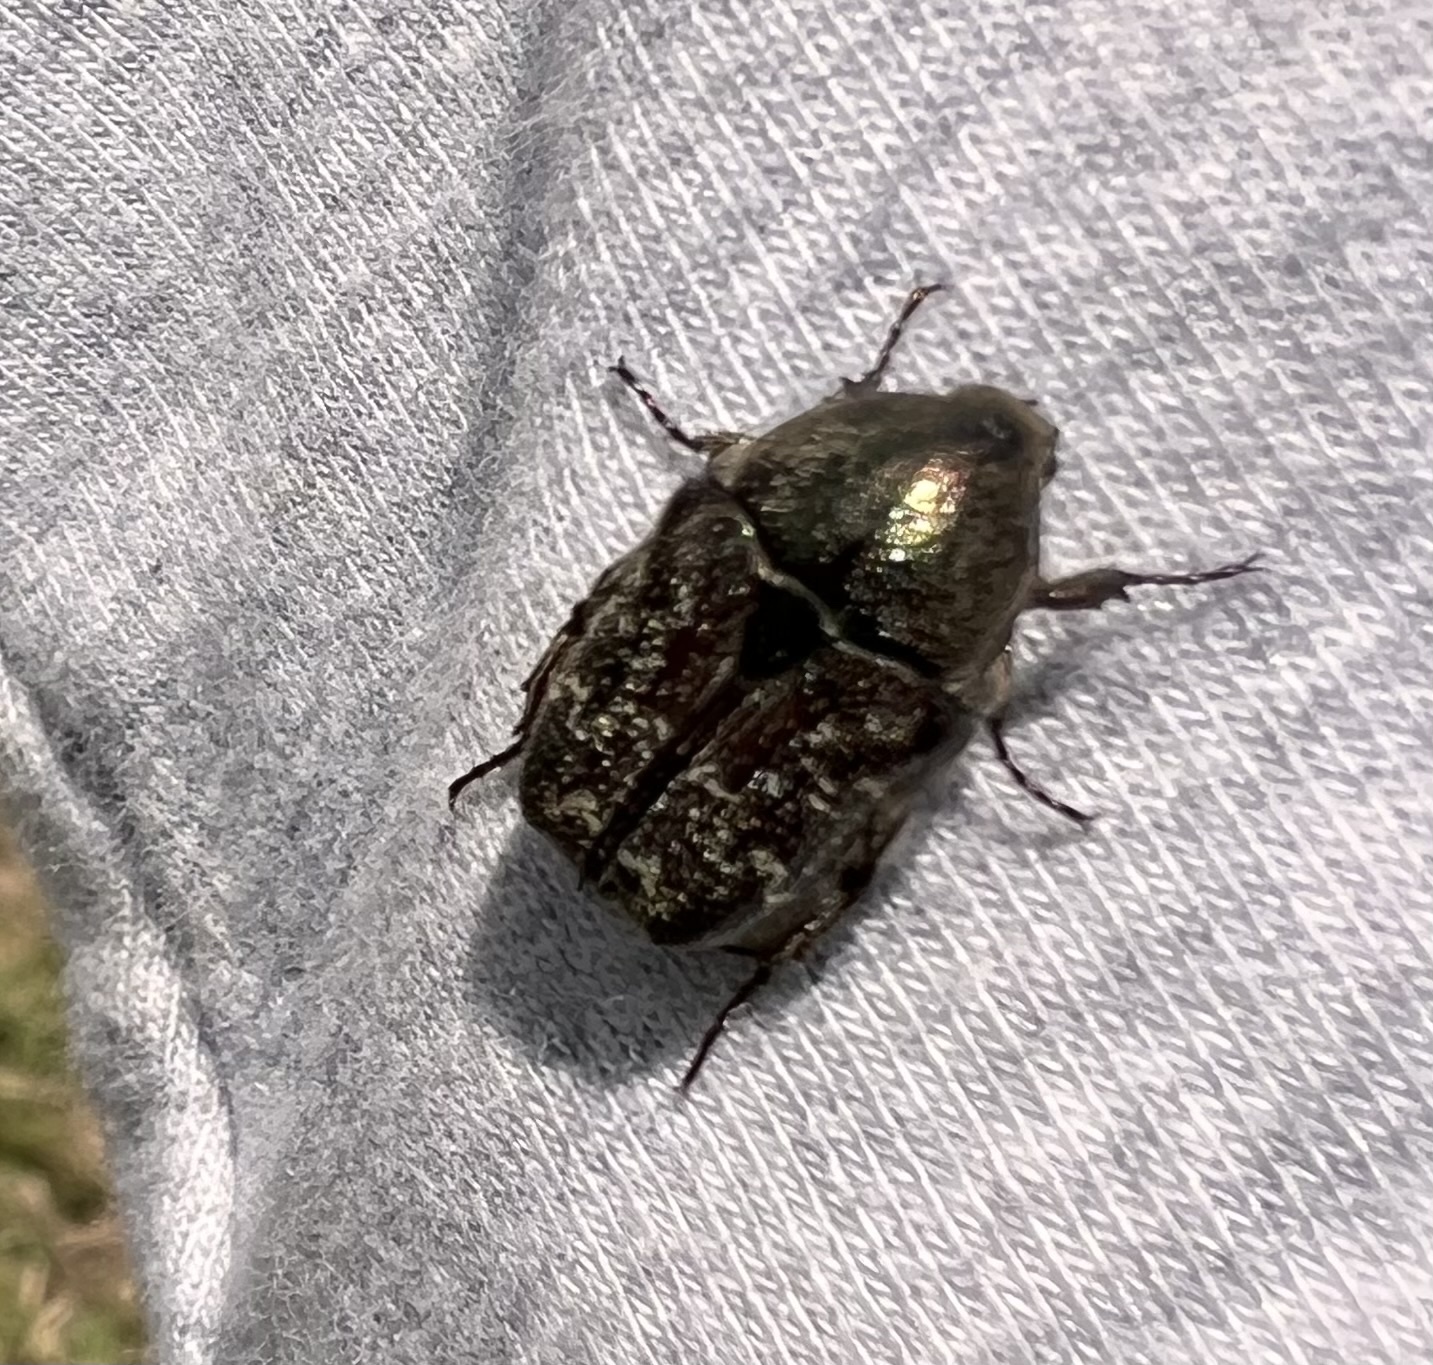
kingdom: Animalia
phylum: Arthropoda
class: Insecta
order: Coleoptera
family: Scarabaeidae
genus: Euphoria
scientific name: Euphoria sepulcralis
